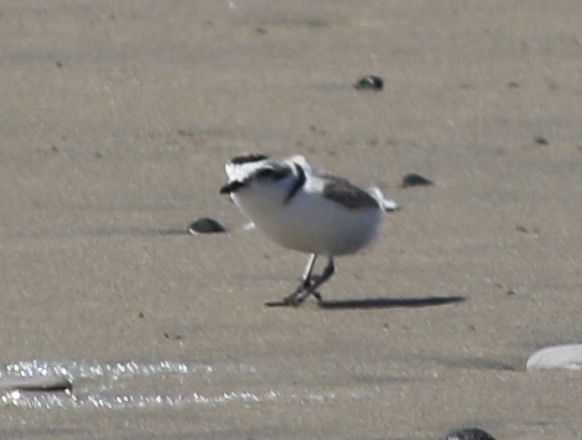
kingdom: Animalia
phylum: Chordata
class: Aves
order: Charadriiformes
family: Charadriidae
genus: Anarhynchus
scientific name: Anarhynchus
